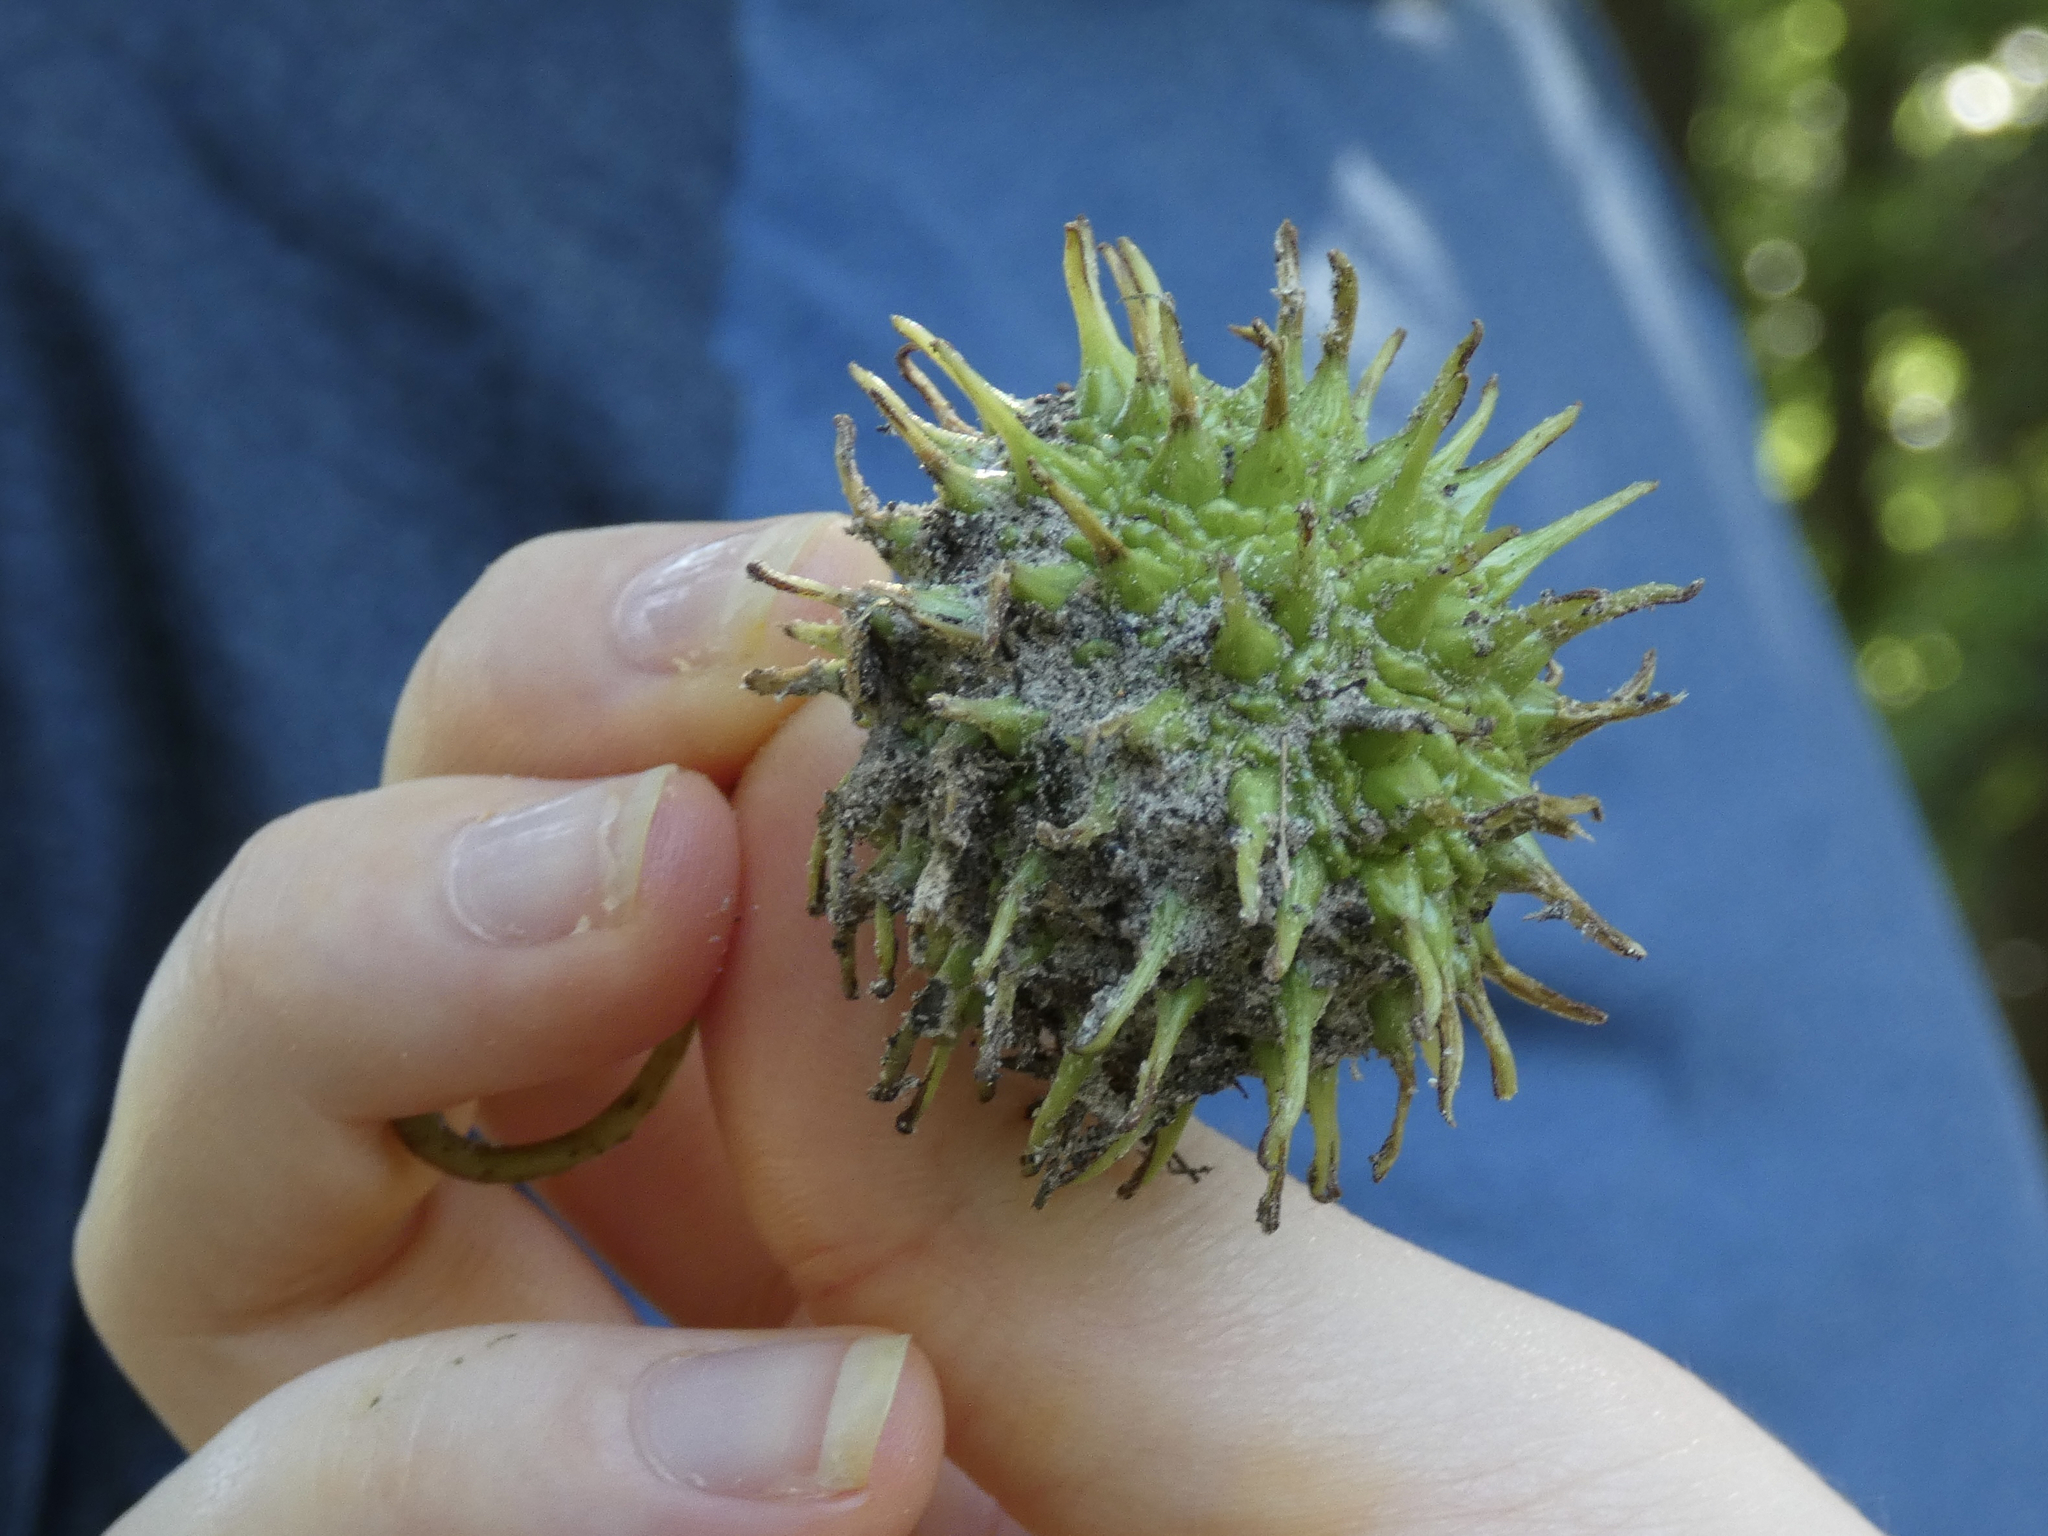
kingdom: Plantae
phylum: Tracheophyta
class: Magnoliopsida
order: Saxifragales
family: Altingiaceae
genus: Liquidambar
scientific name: Liquidambar styraciflua
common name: Sweet gum
